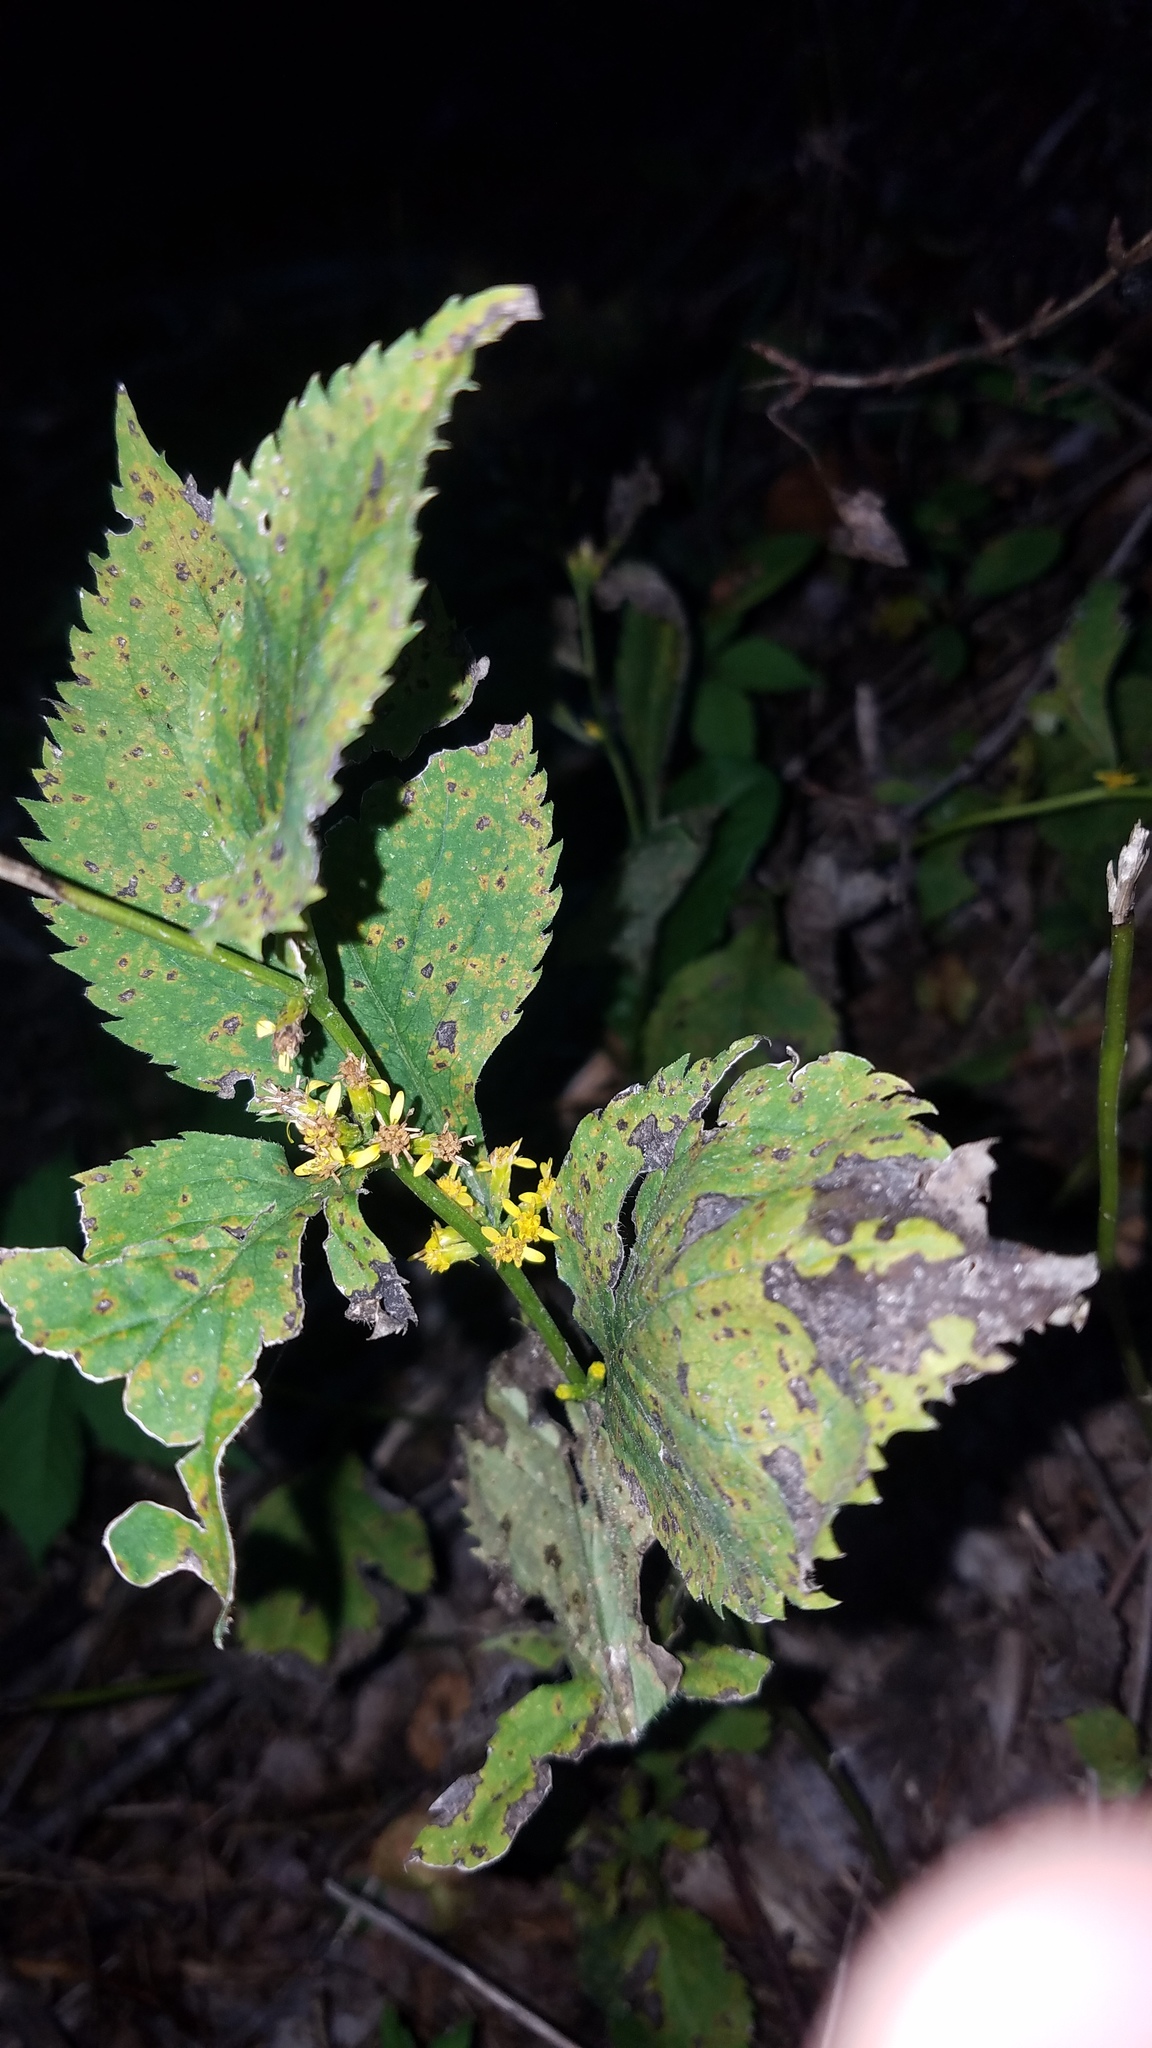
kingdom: Plantae
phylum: Tracheophyta
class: Magnoliopsida
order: Asterales
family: Asteraceae
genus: Solidago
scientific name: Solidago flexicaulis
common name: Zig-zag goldenrod
